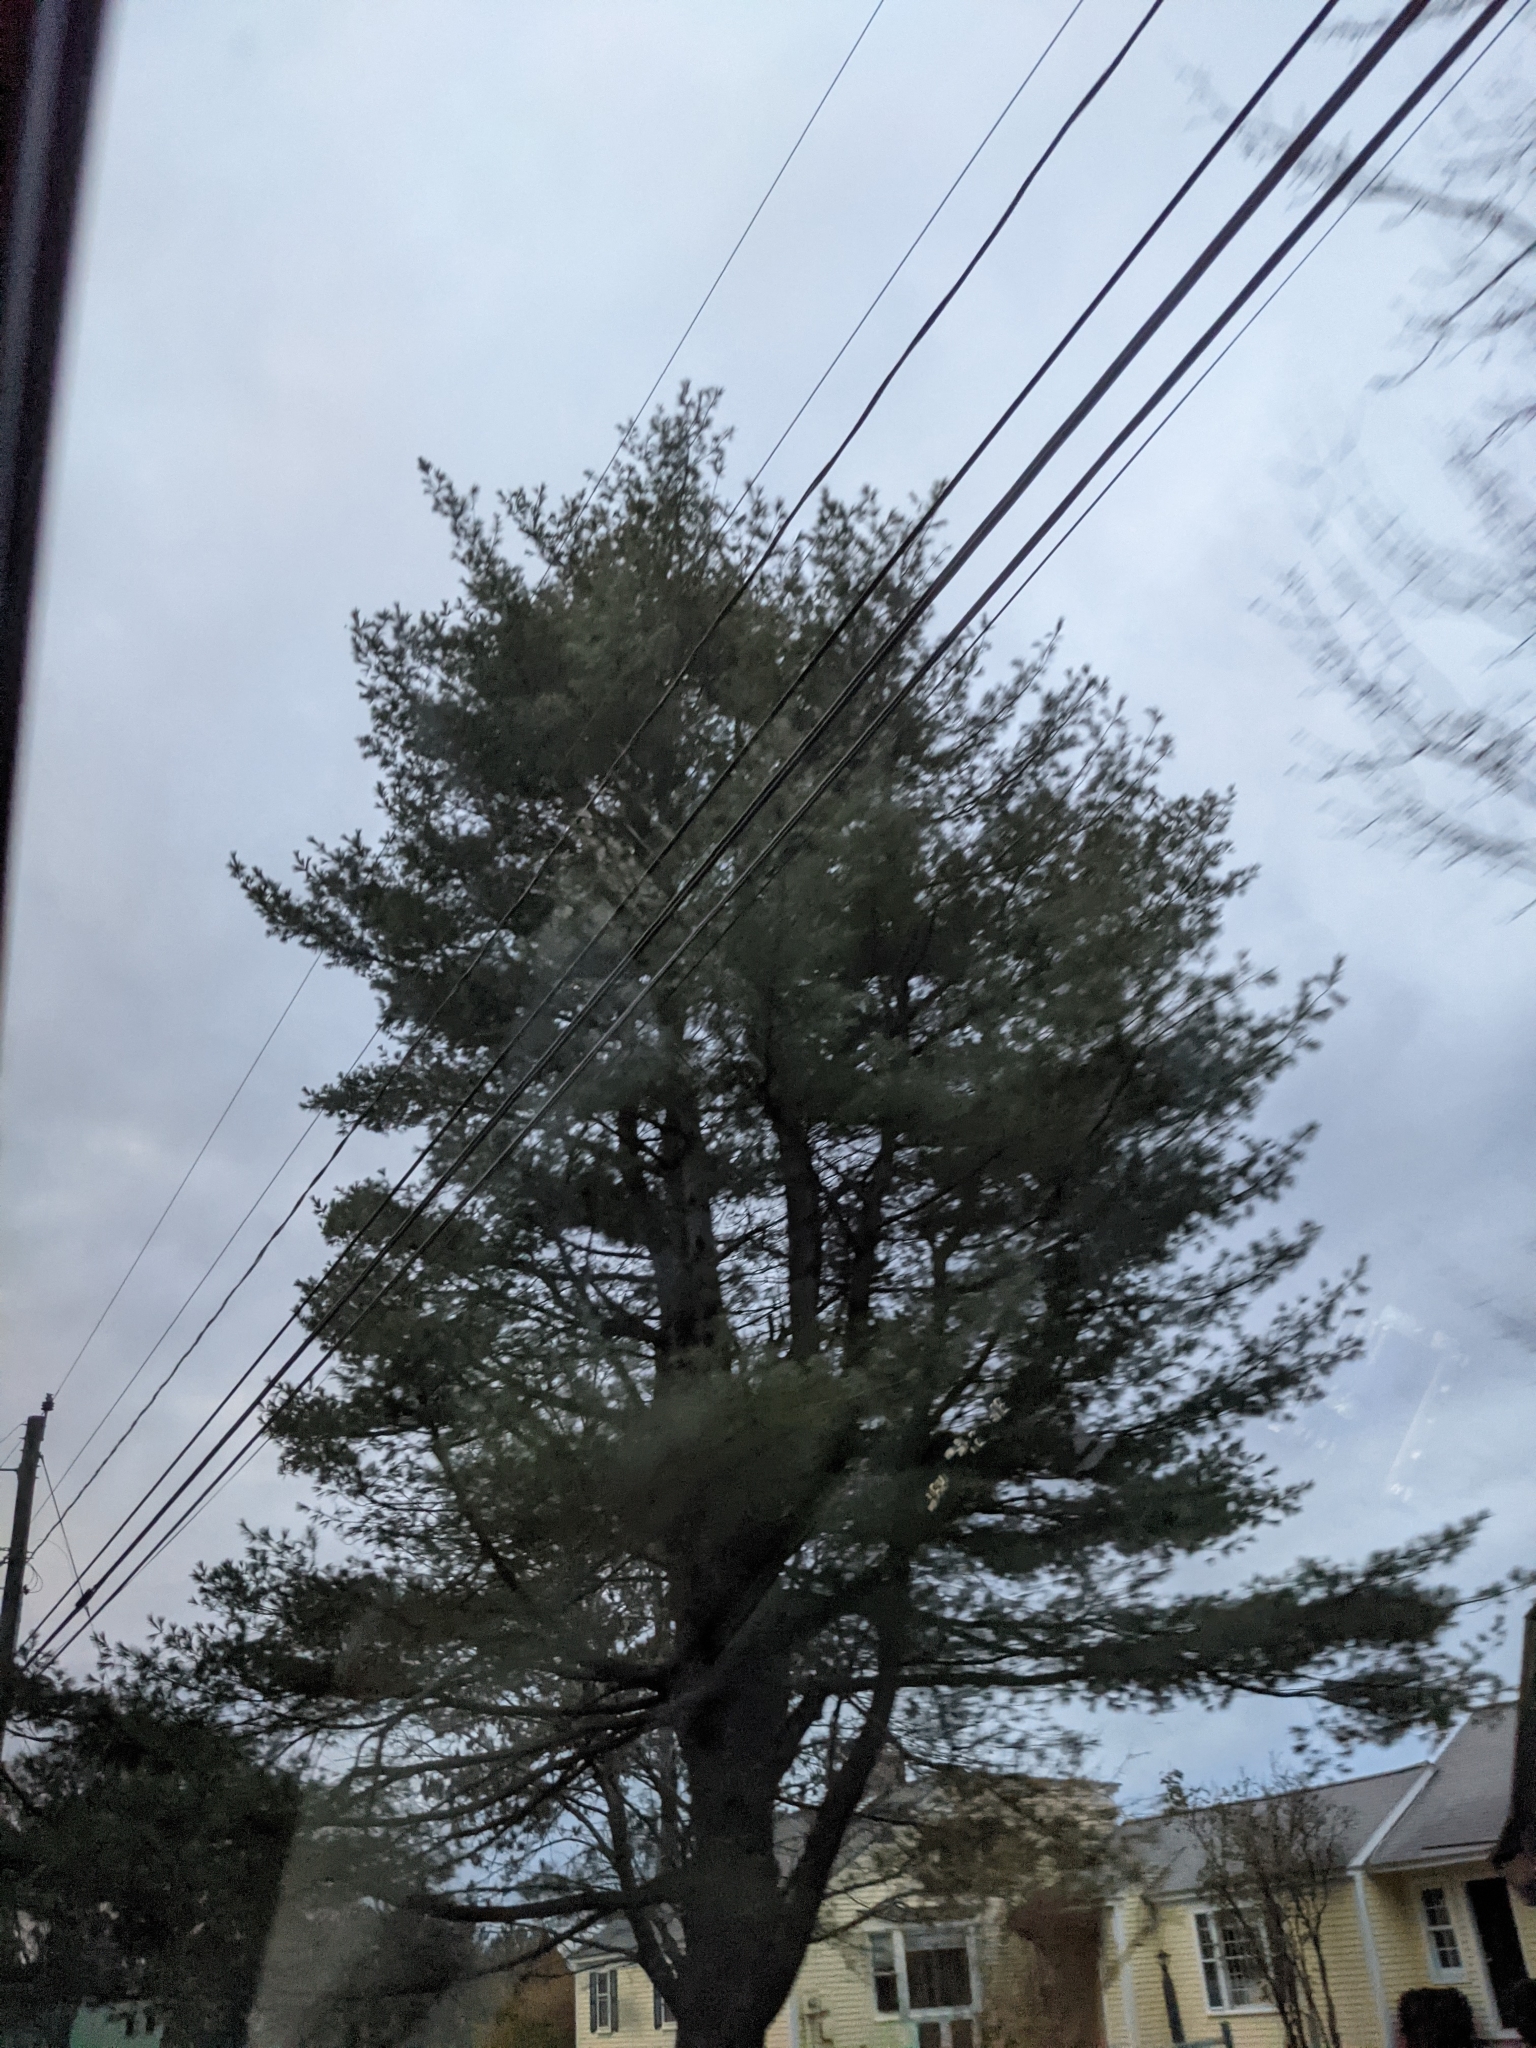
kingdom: Plantae
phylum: Tracheophyta
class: Pinopsida
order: Pinales
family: Pinaceae
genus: Pinus
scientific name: Pinus strobus
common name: Weymouth pine
